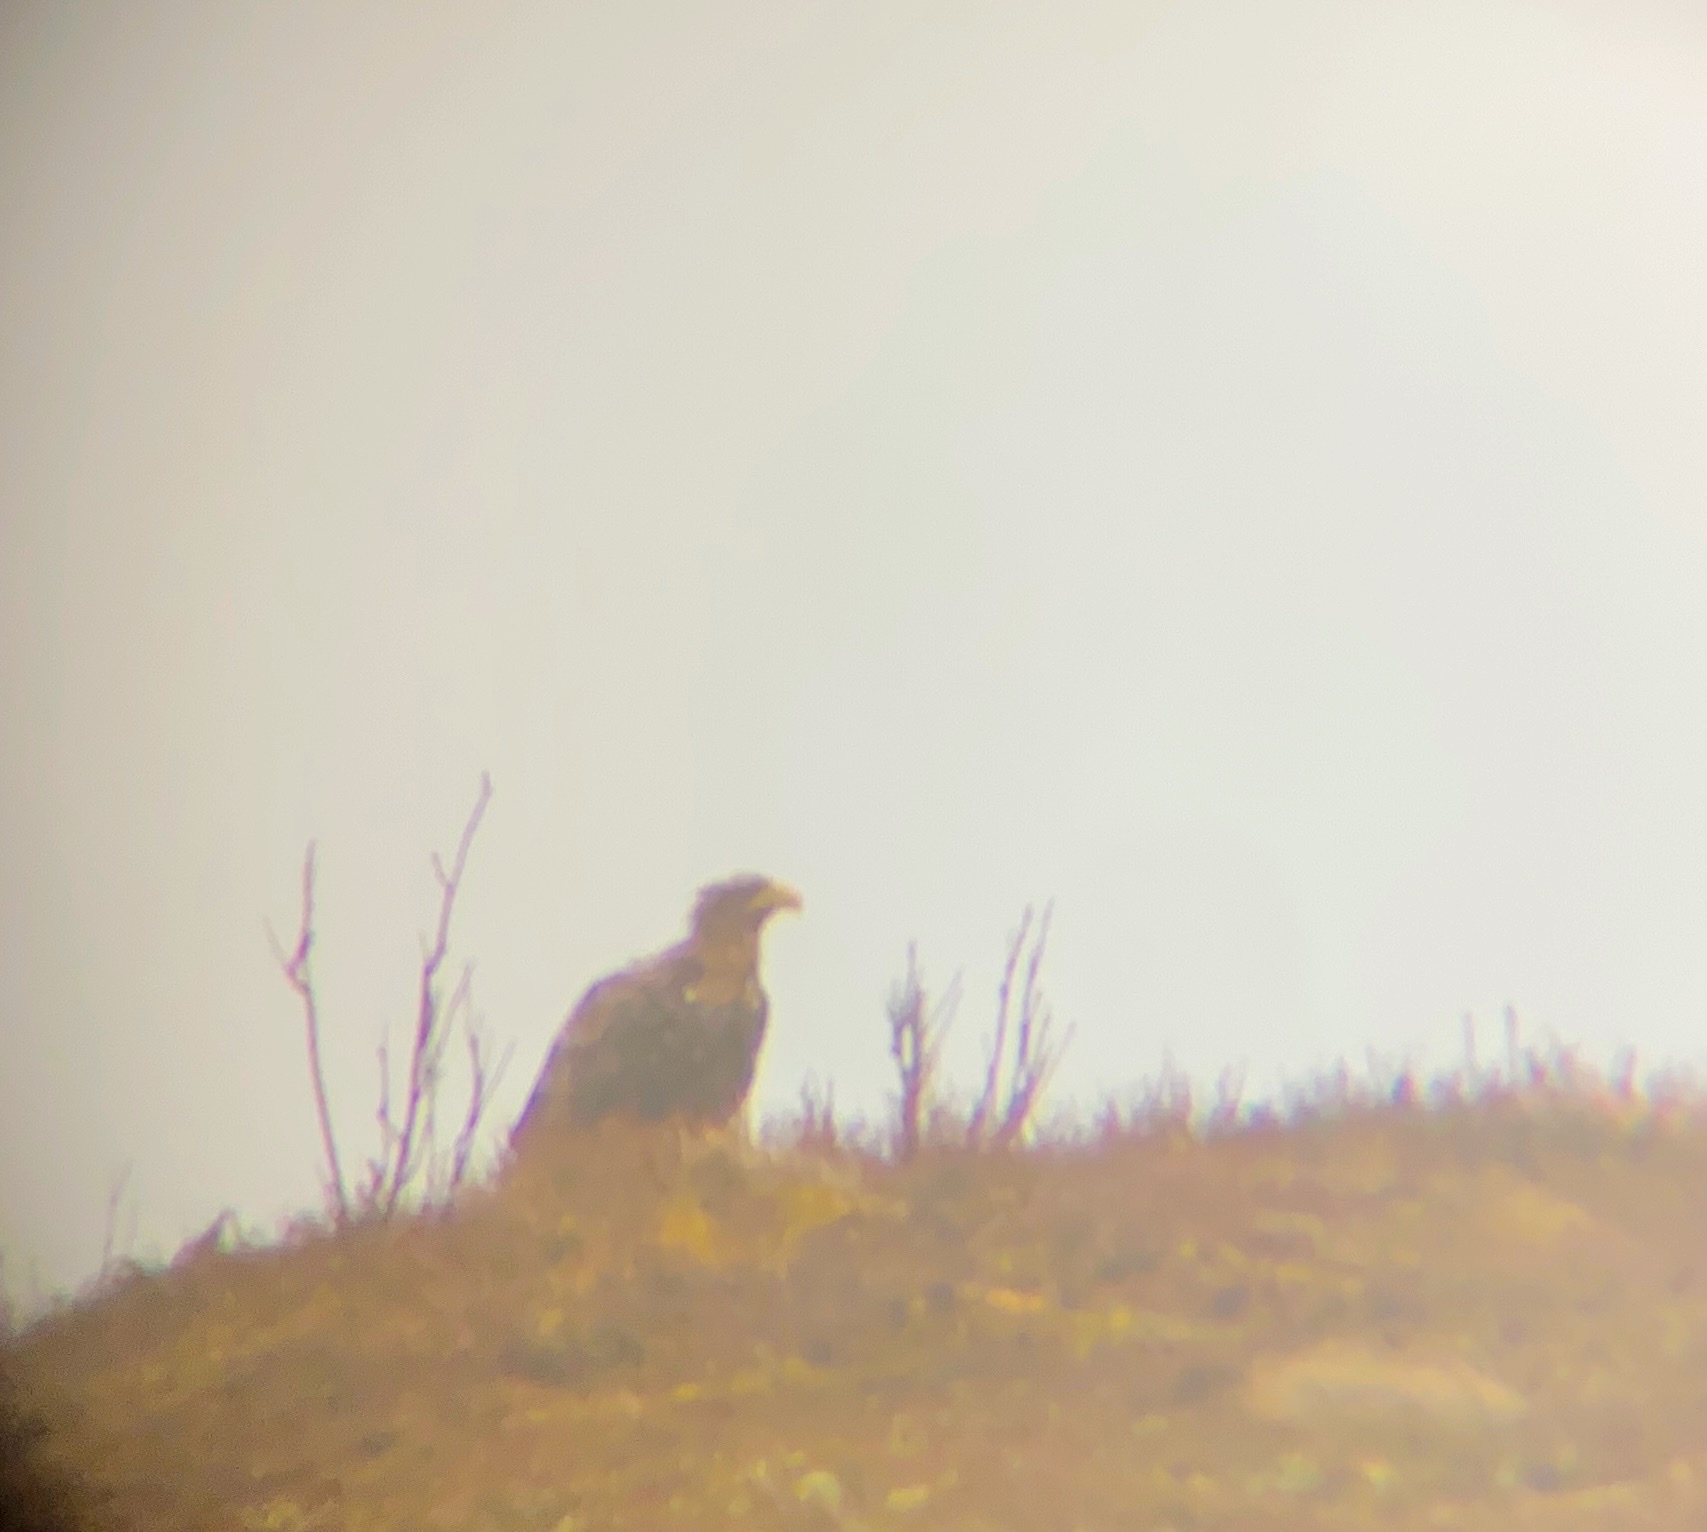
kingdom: Animalia
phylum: Chordata
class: Aves
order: Accipitriformes
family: Accipitridae
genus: Haliaeetus
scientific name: Haliaeetus albicilla
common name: White-tailed eagle
